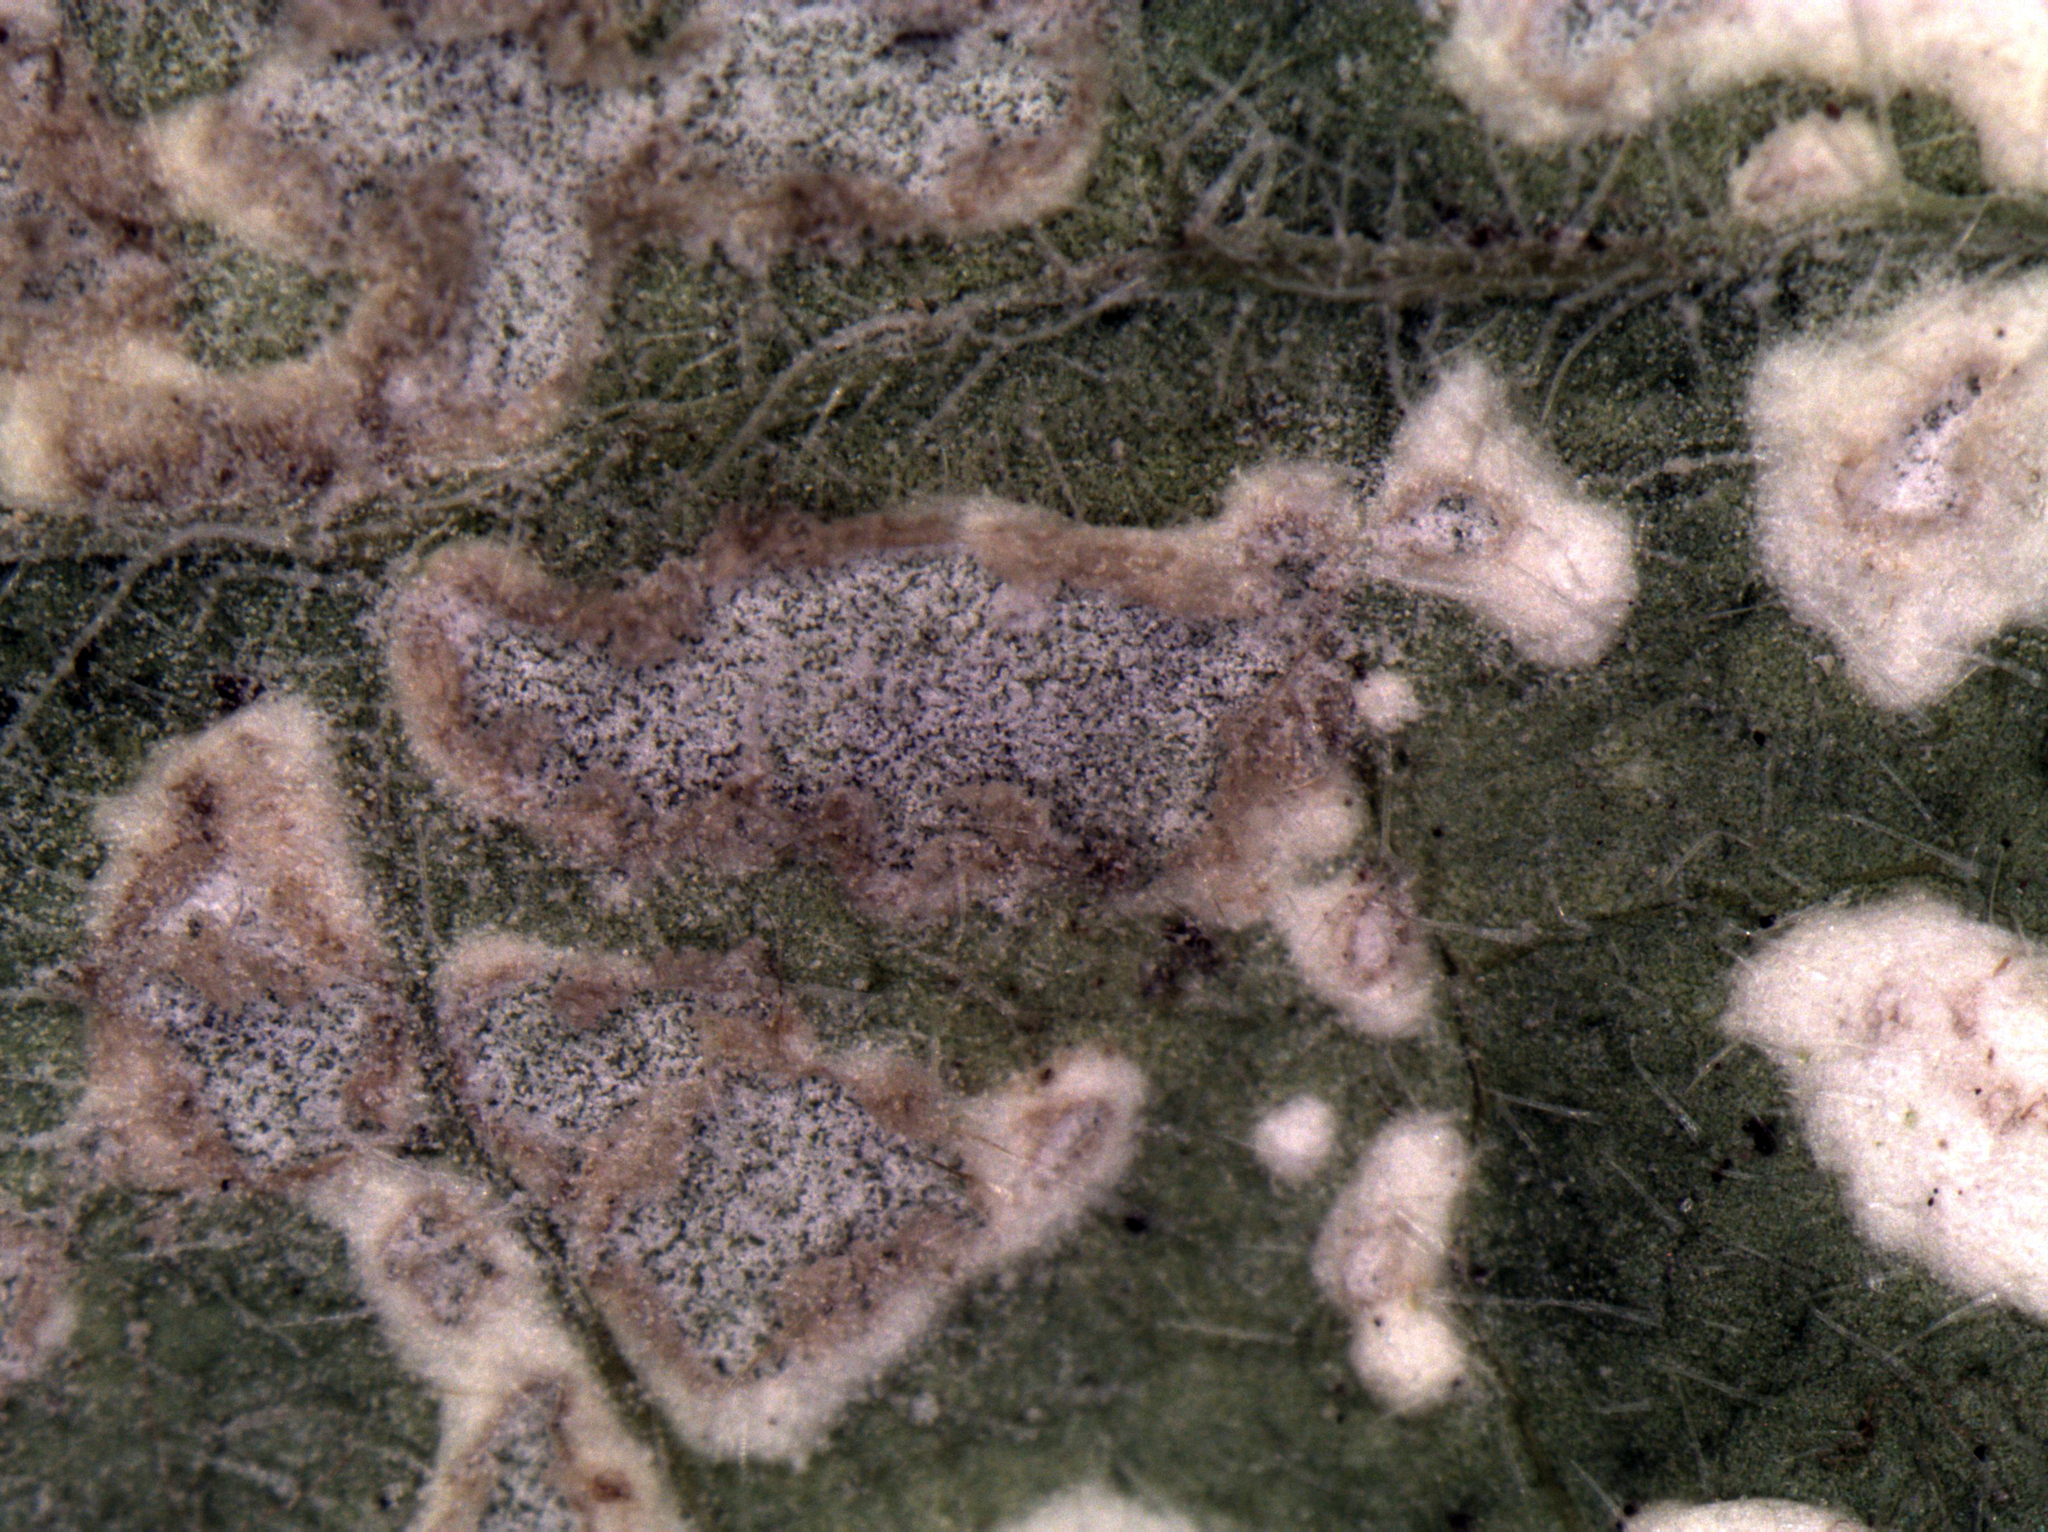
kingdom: Chromista
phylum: Oomycota
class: Peronosporea
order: Peronosporales
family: Peronosporaceae
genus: Hyaloperonospora
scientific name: Hyaloperonospora lunariae
